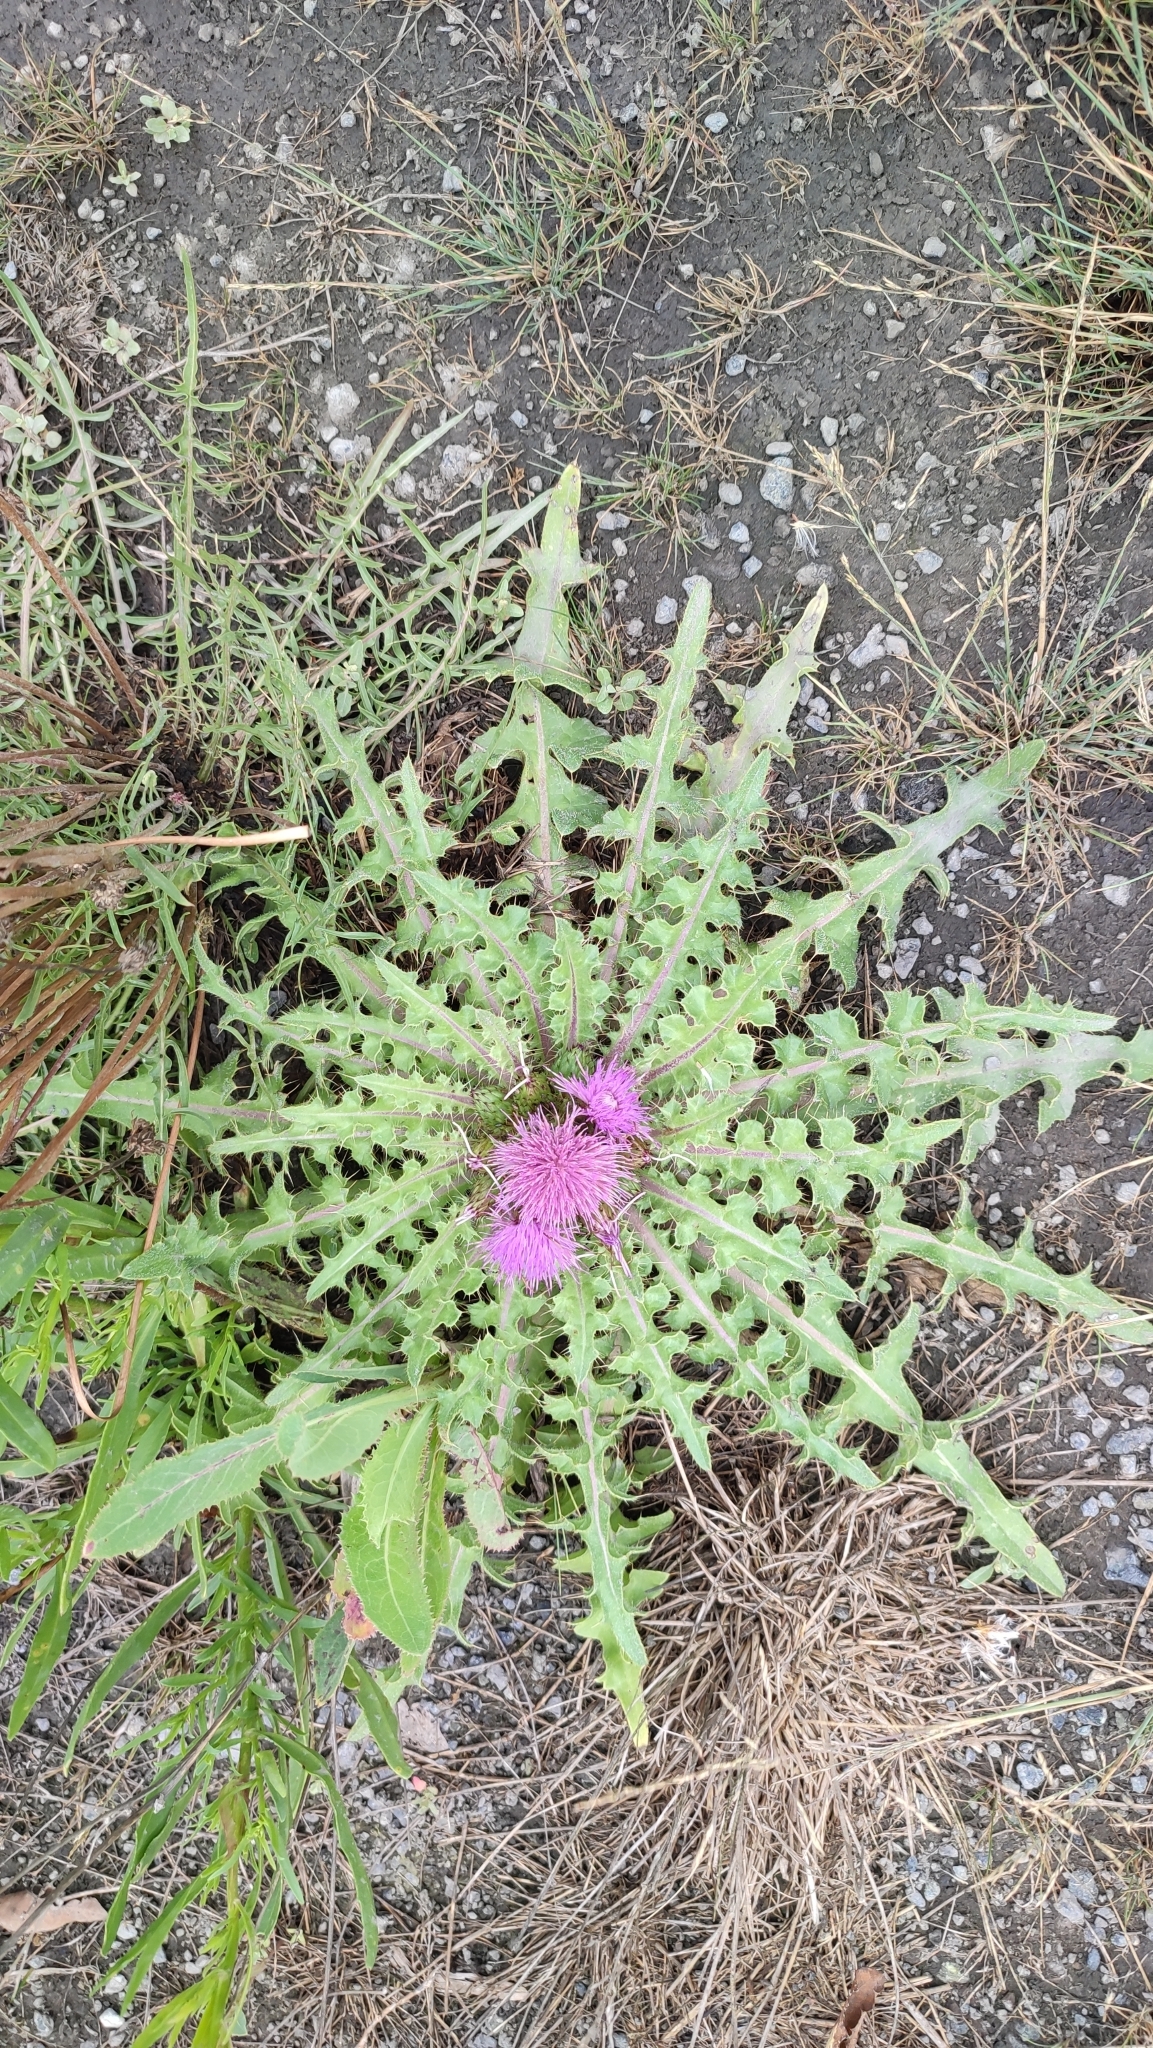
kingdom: Plantae
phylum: Tracheophyta
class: Magnoliopsida
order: Asterales
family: Asteraceae
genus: Cirsium
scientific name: Cirsium esculentum
